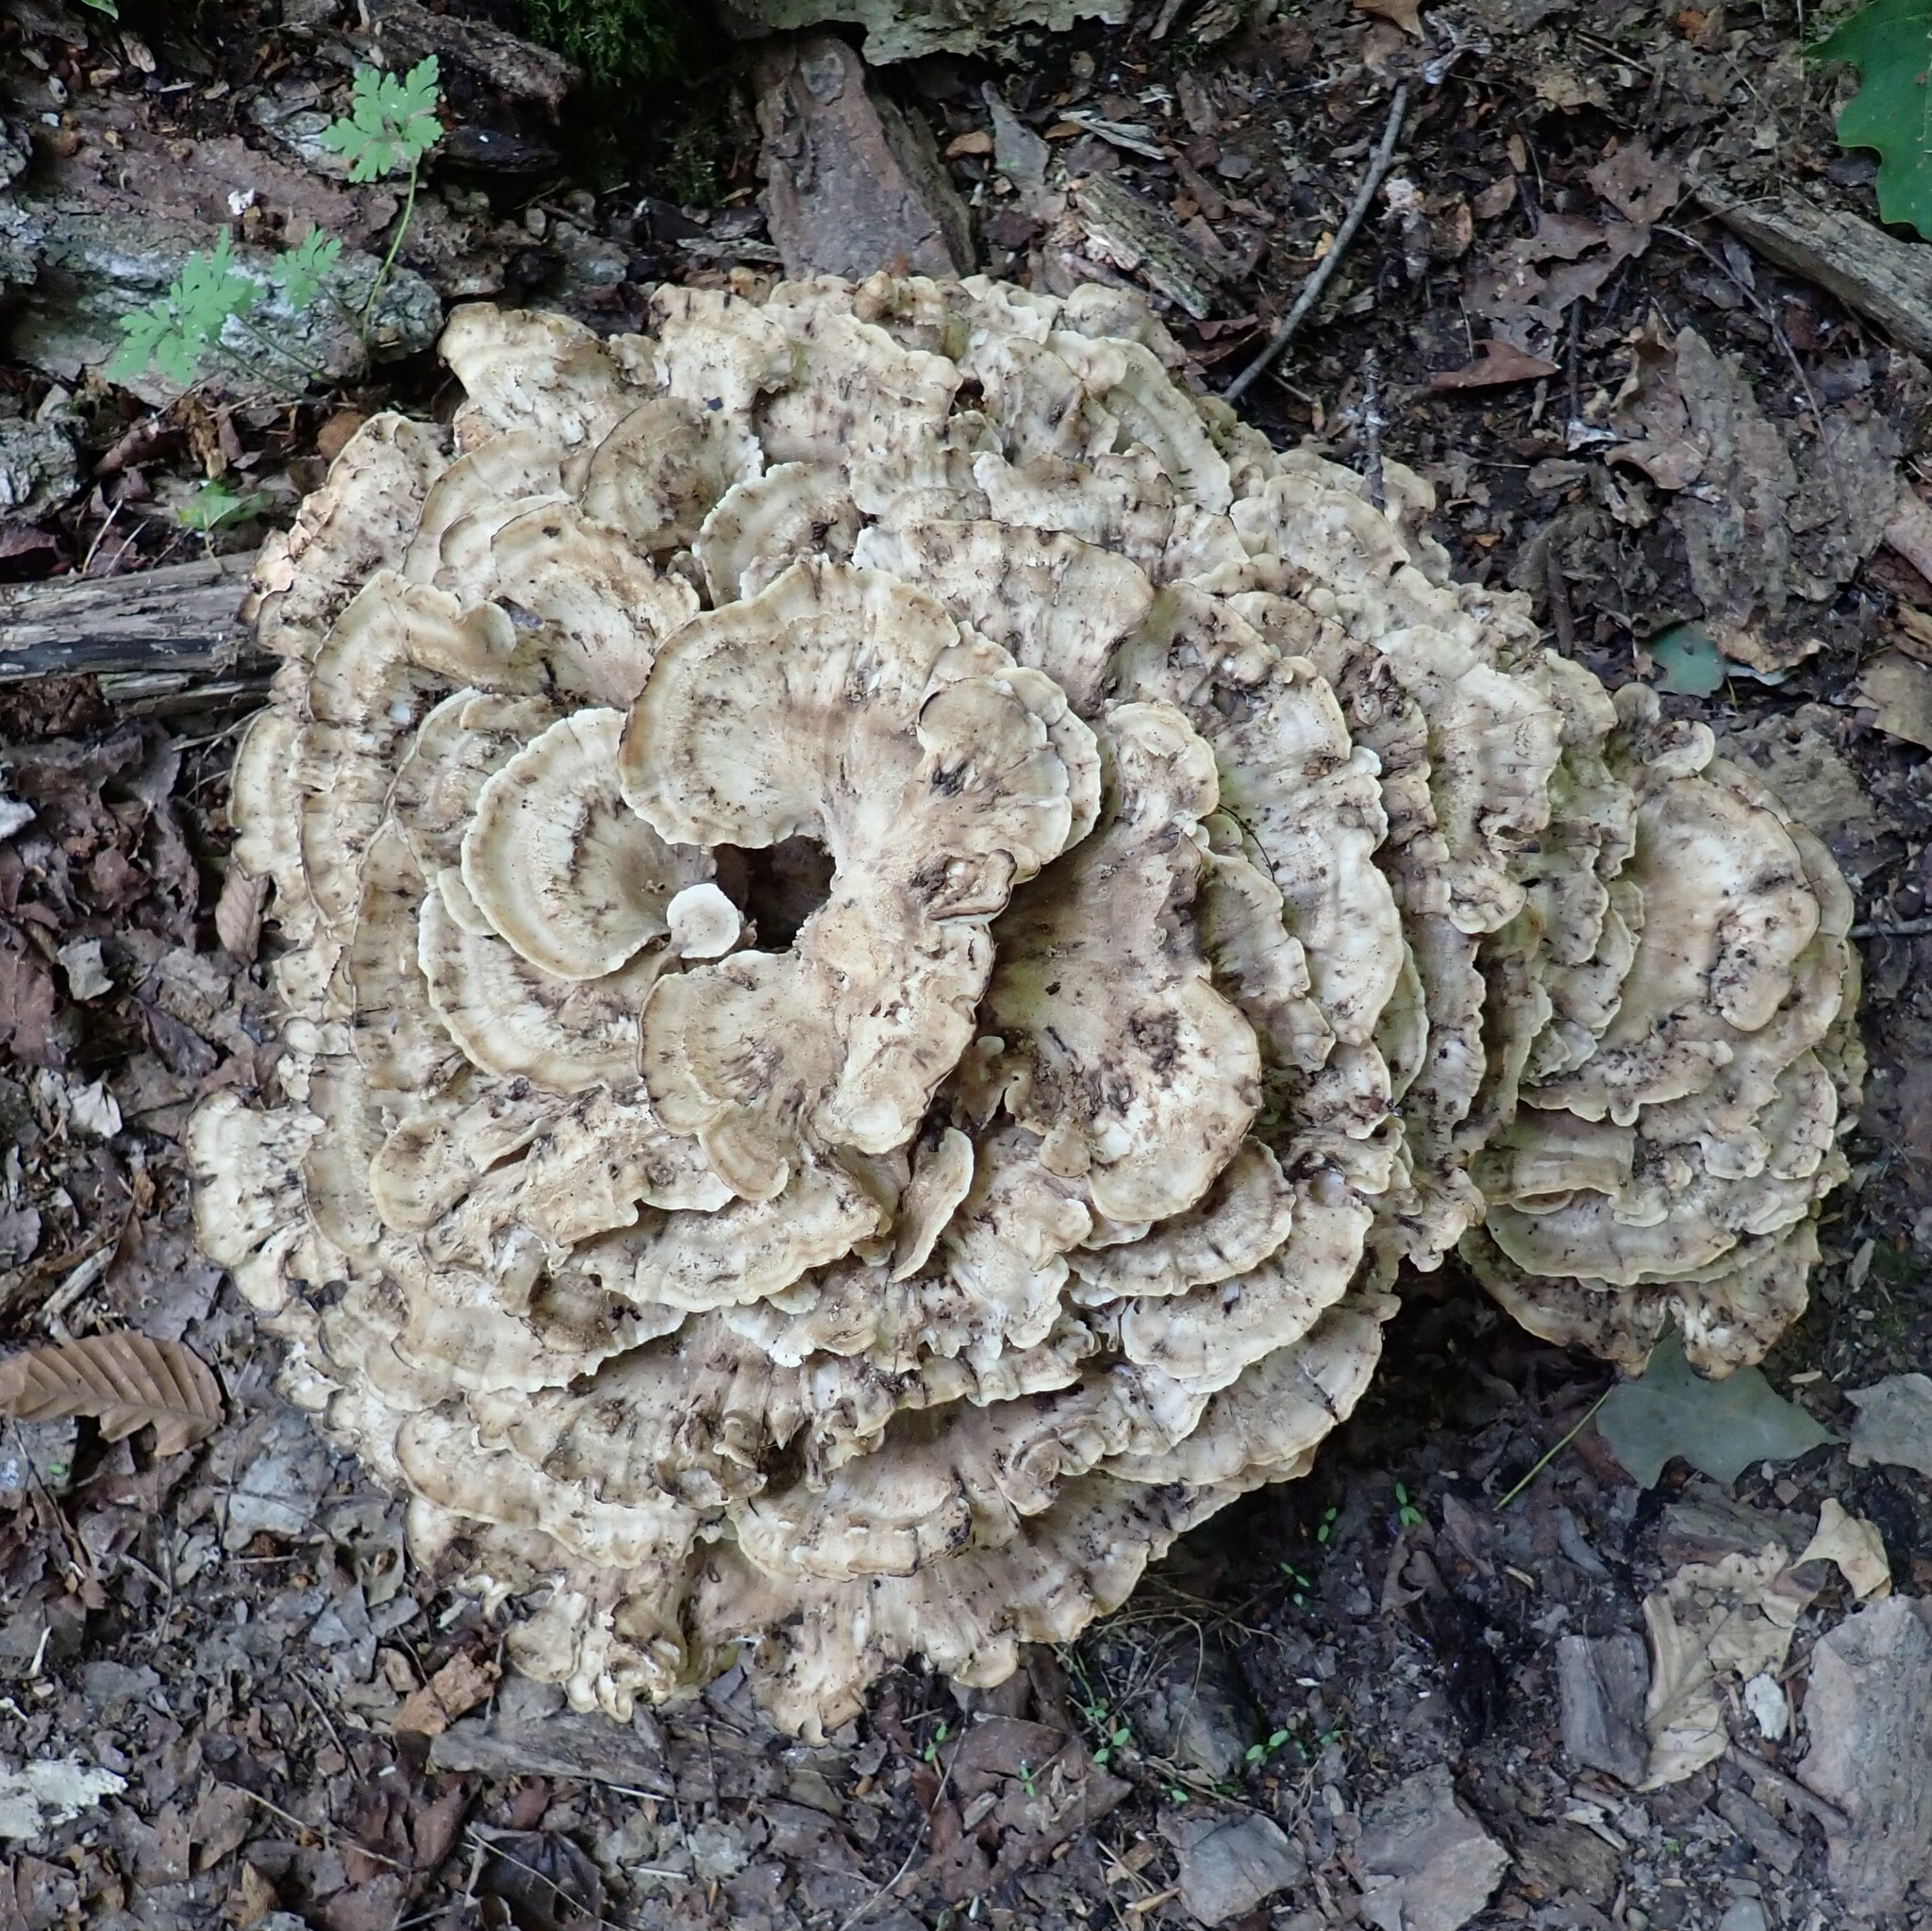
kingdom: Fungi
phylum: Basidiomycota
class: Agaricomycetes
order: Polyporales
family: Meripilaceae
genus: Meripilus
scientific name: Meripilus sumstinei
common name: Black-staining polypore
